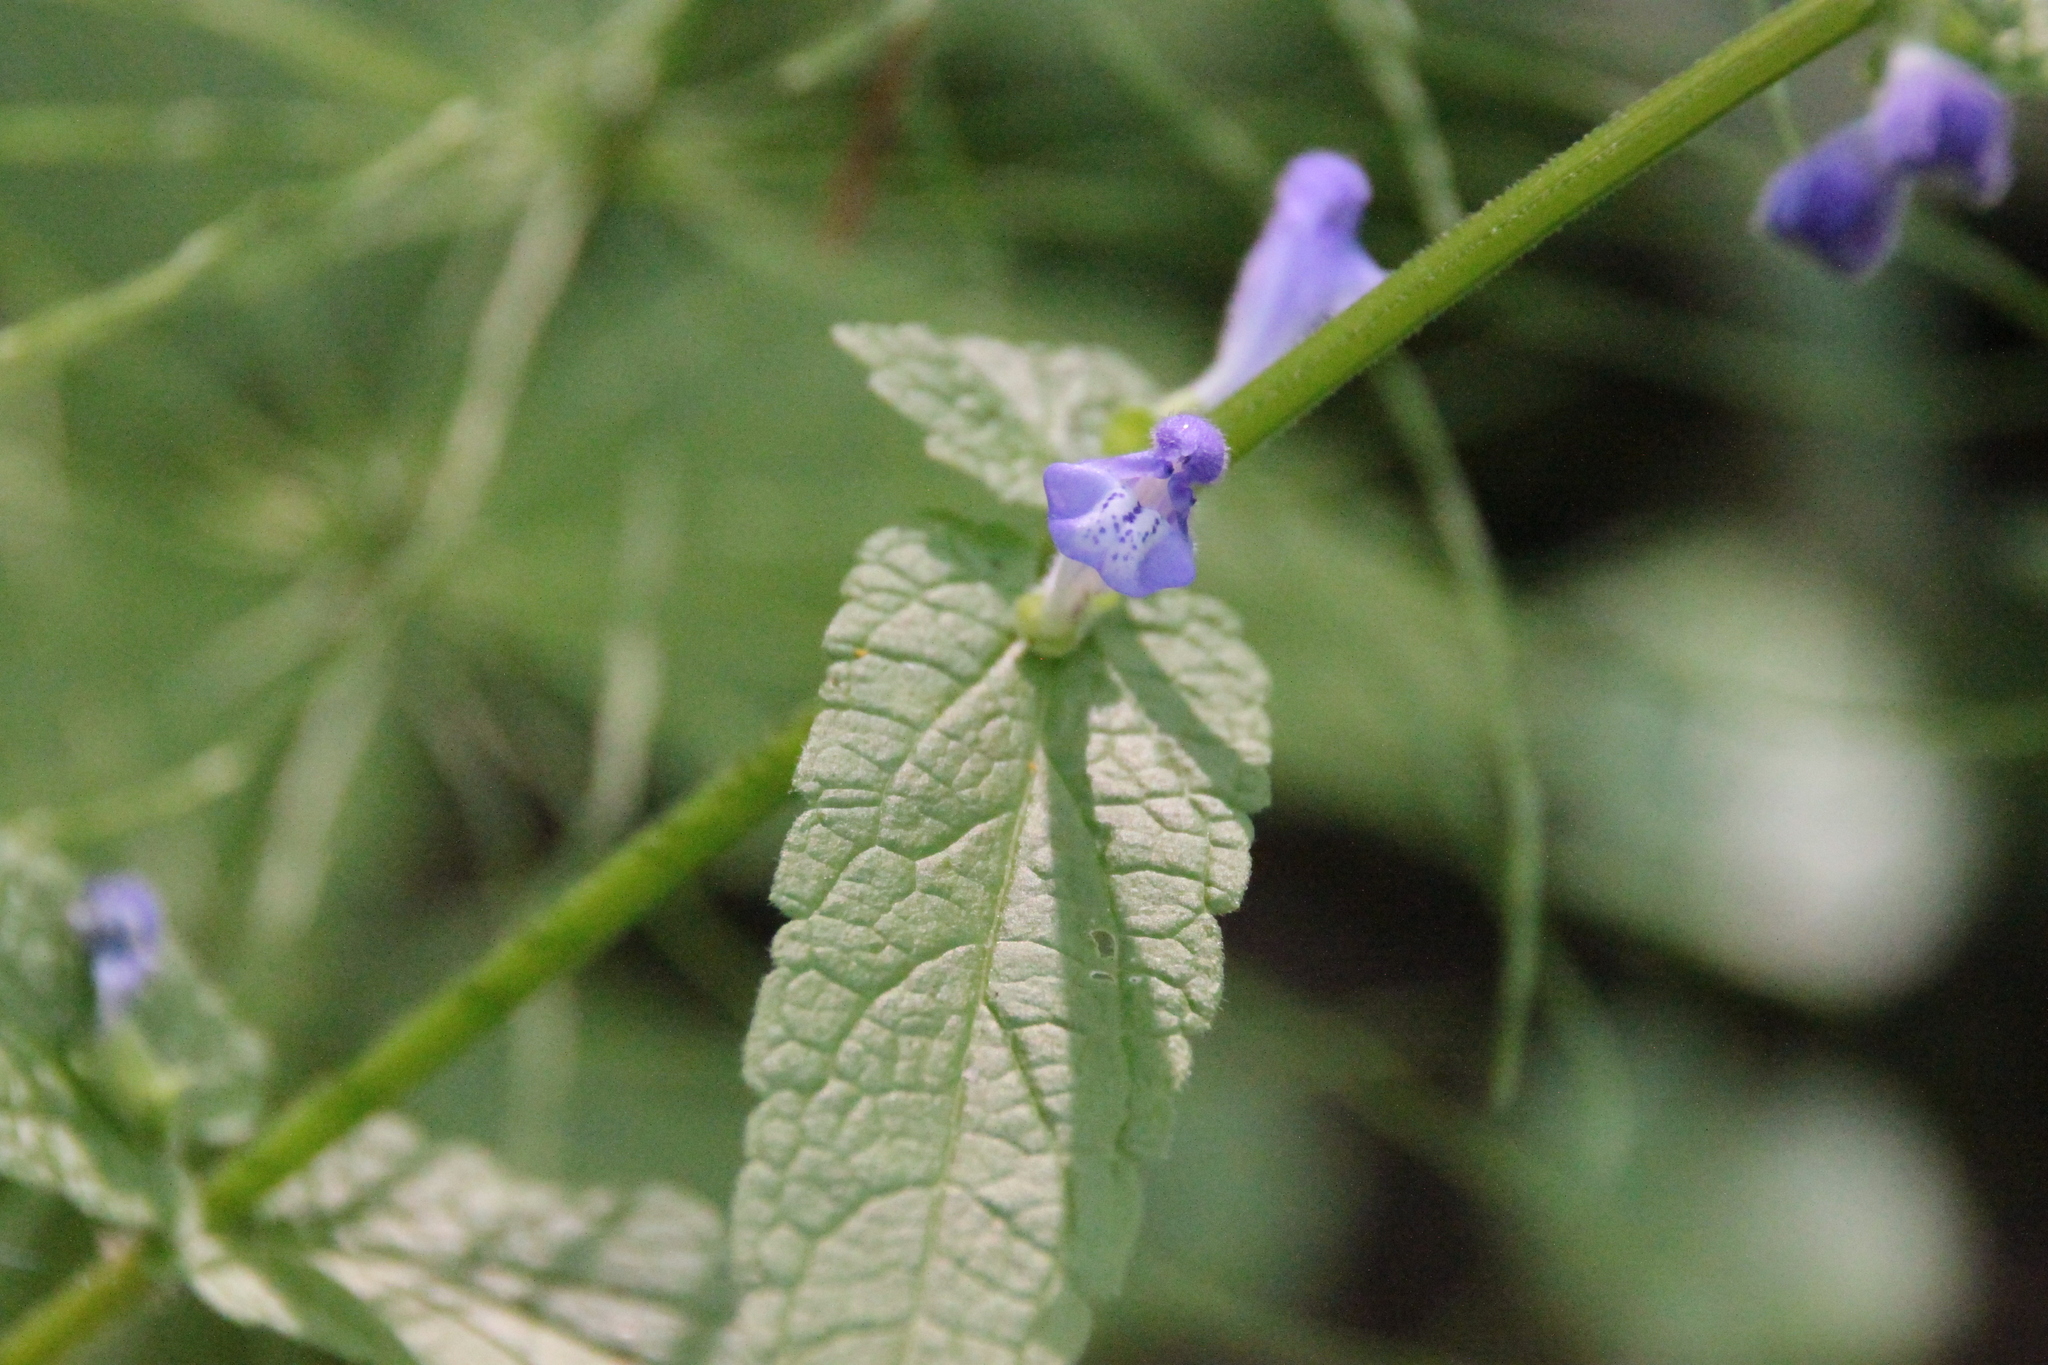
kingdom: Plantae
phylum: Tracheophyta
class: Magnoliopsida
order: Lamiales
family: Lamiaceae
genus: Scutellaria
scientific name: Scutellaria galericulata
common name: Skullcap
